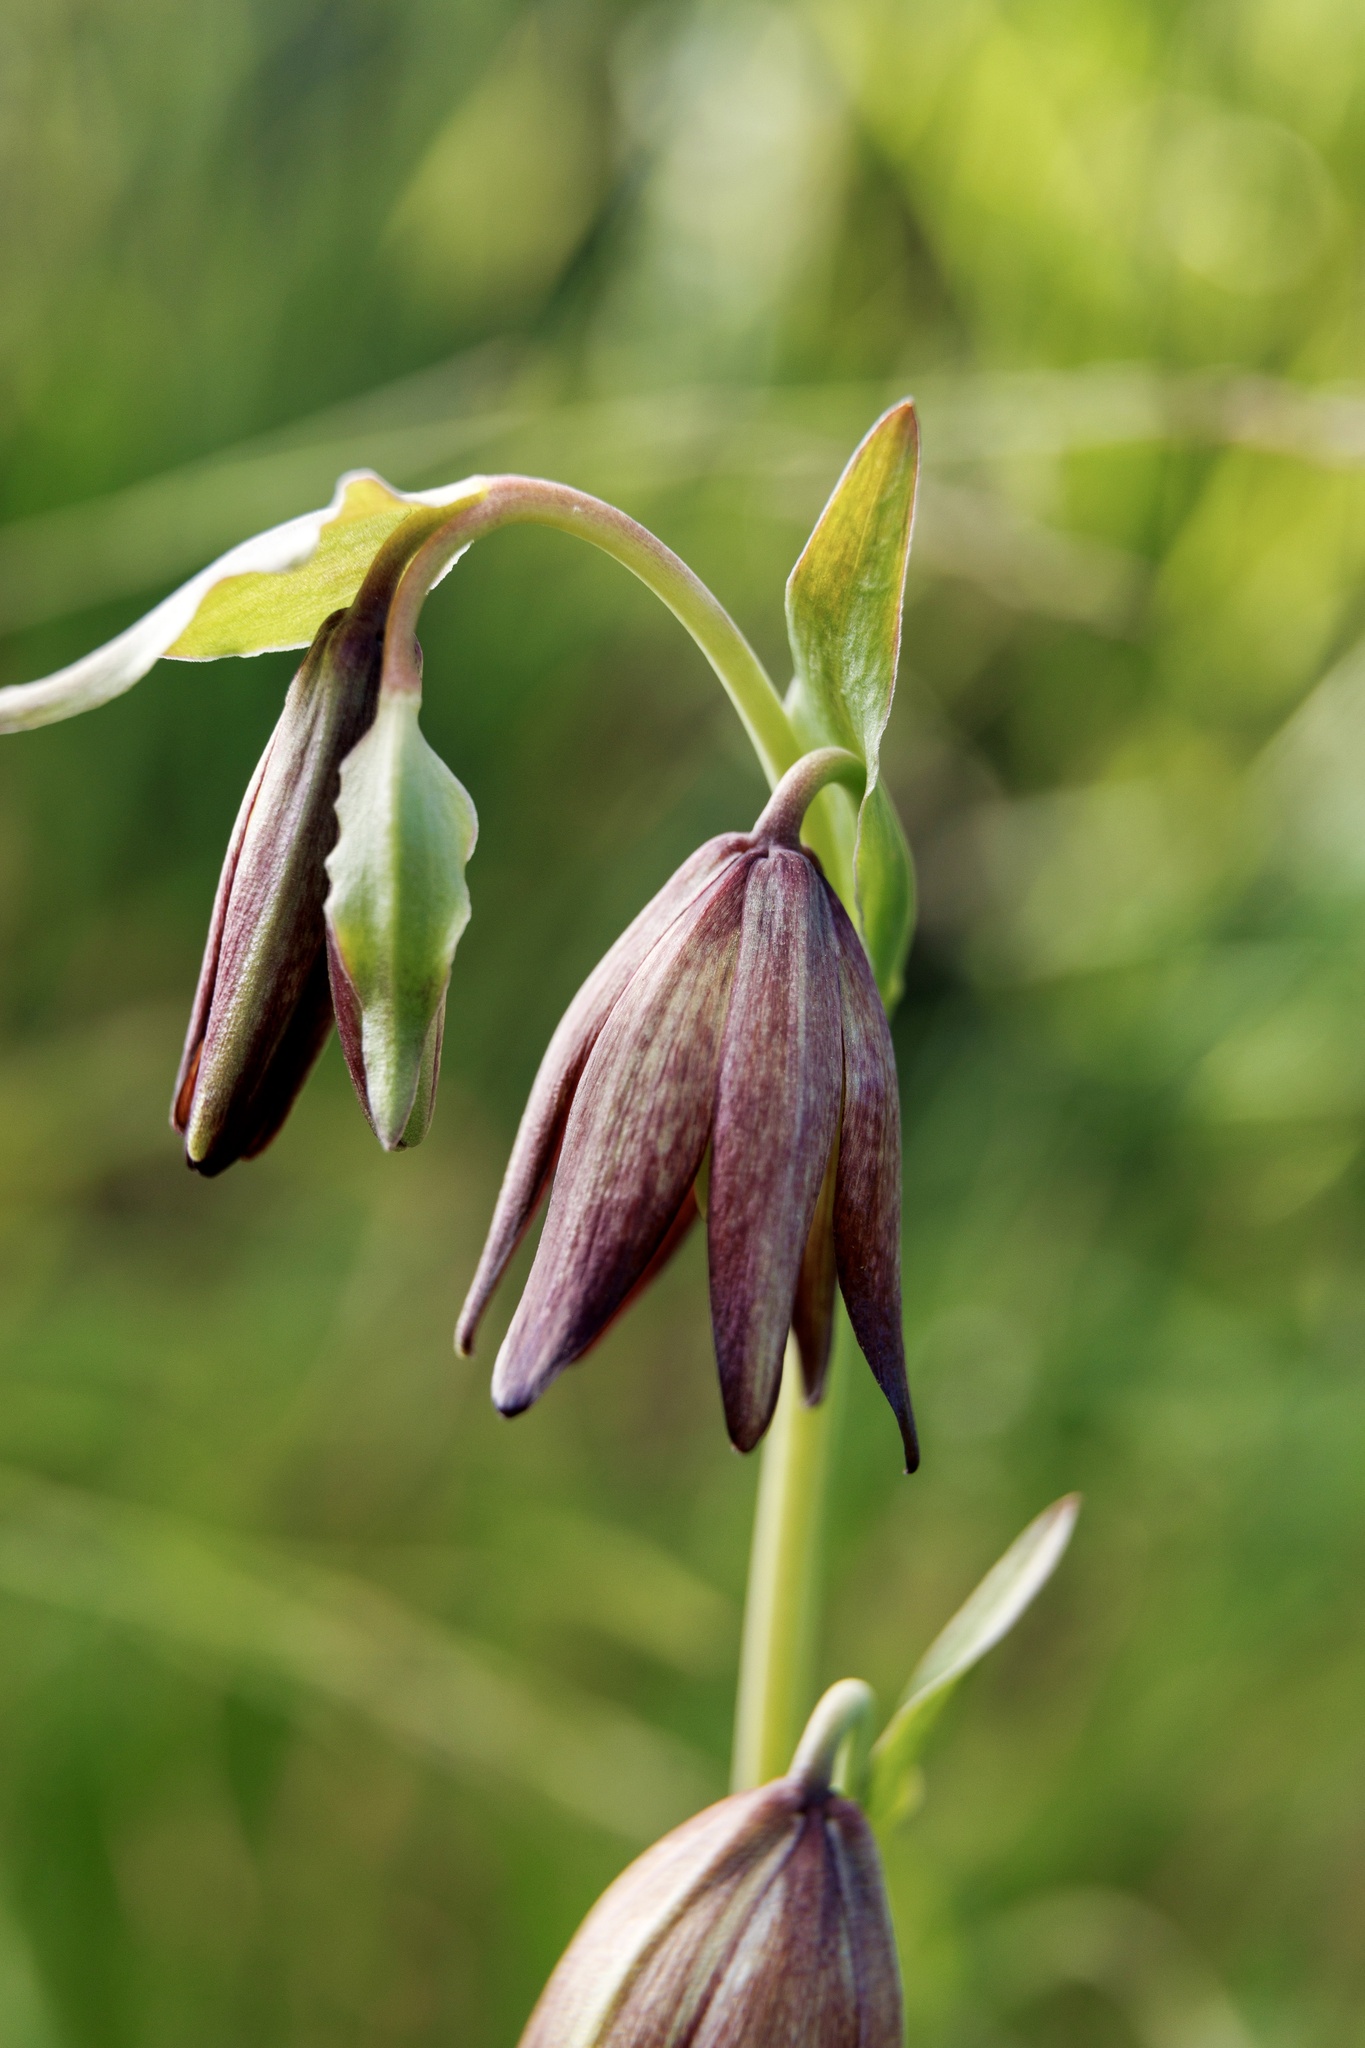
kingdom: Plantae
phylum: Tracheophyta
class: Liliopsida
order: Liliales
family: Liliaceae
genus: Fritillaria
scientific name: Fritillaria biflora
